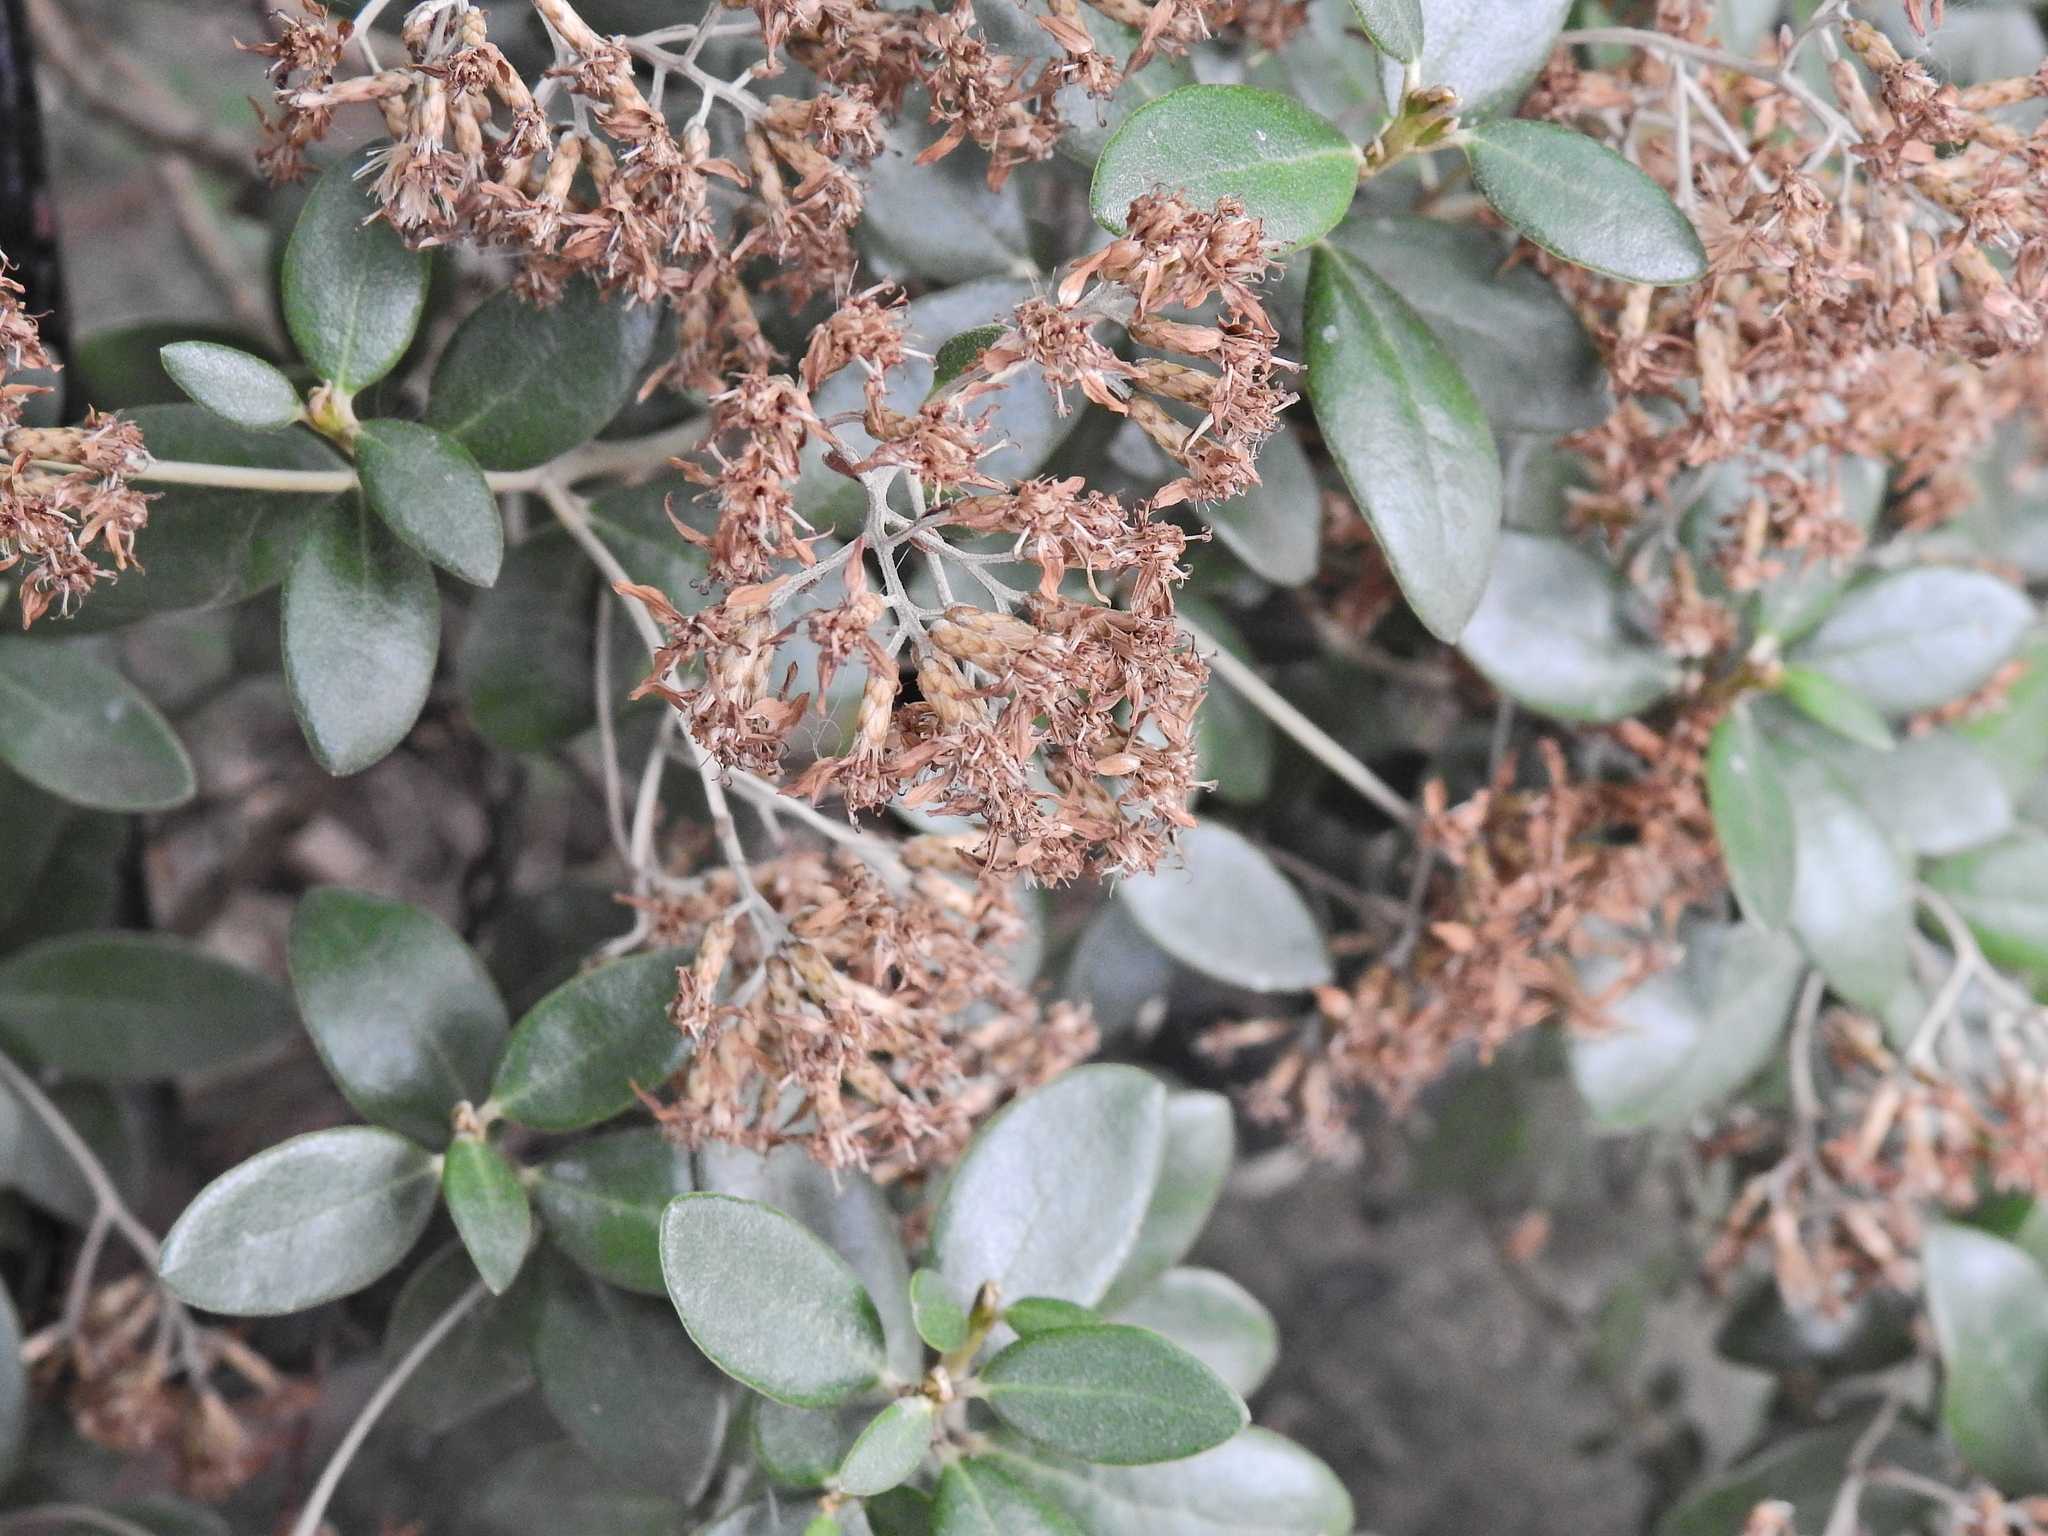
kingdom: Plantae
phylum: Tracheophyta
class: Magnoliopsida
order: Asterales
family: Asteraceae
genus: Olearia
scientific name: Olearia haastii
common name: Daisybush
